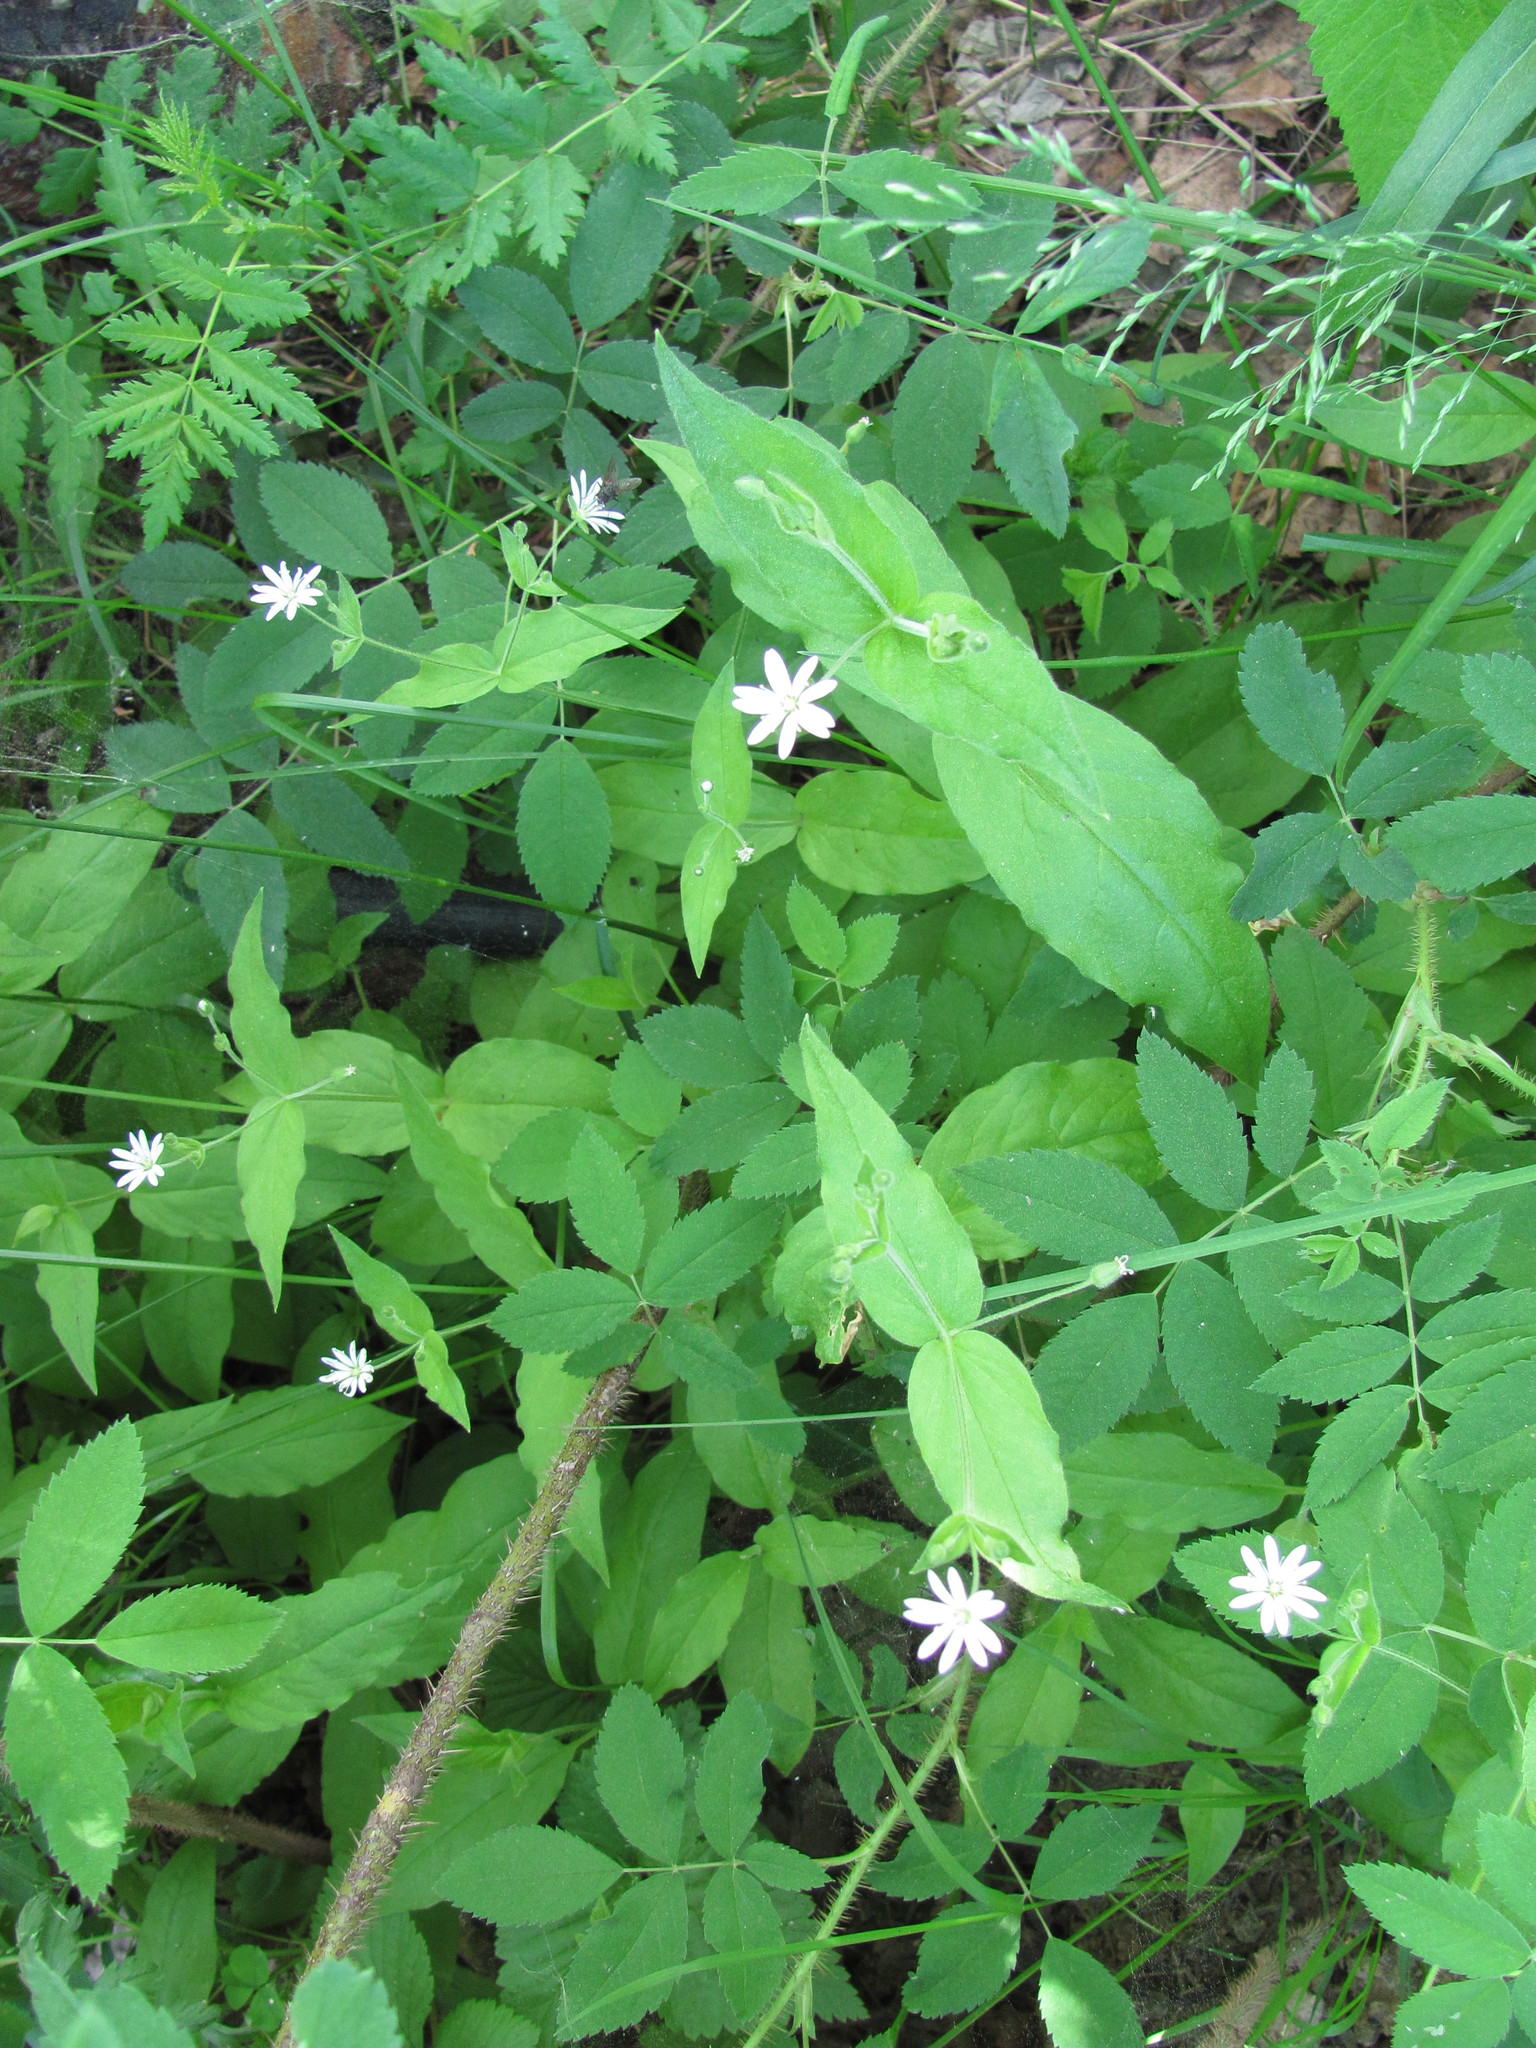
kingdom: Plantae
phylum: Tracheophyta
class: Magnoliopsida
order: Caryophyllales
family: Caryophyllaceae
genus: Stellaria
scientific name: Stellaria bungeana
